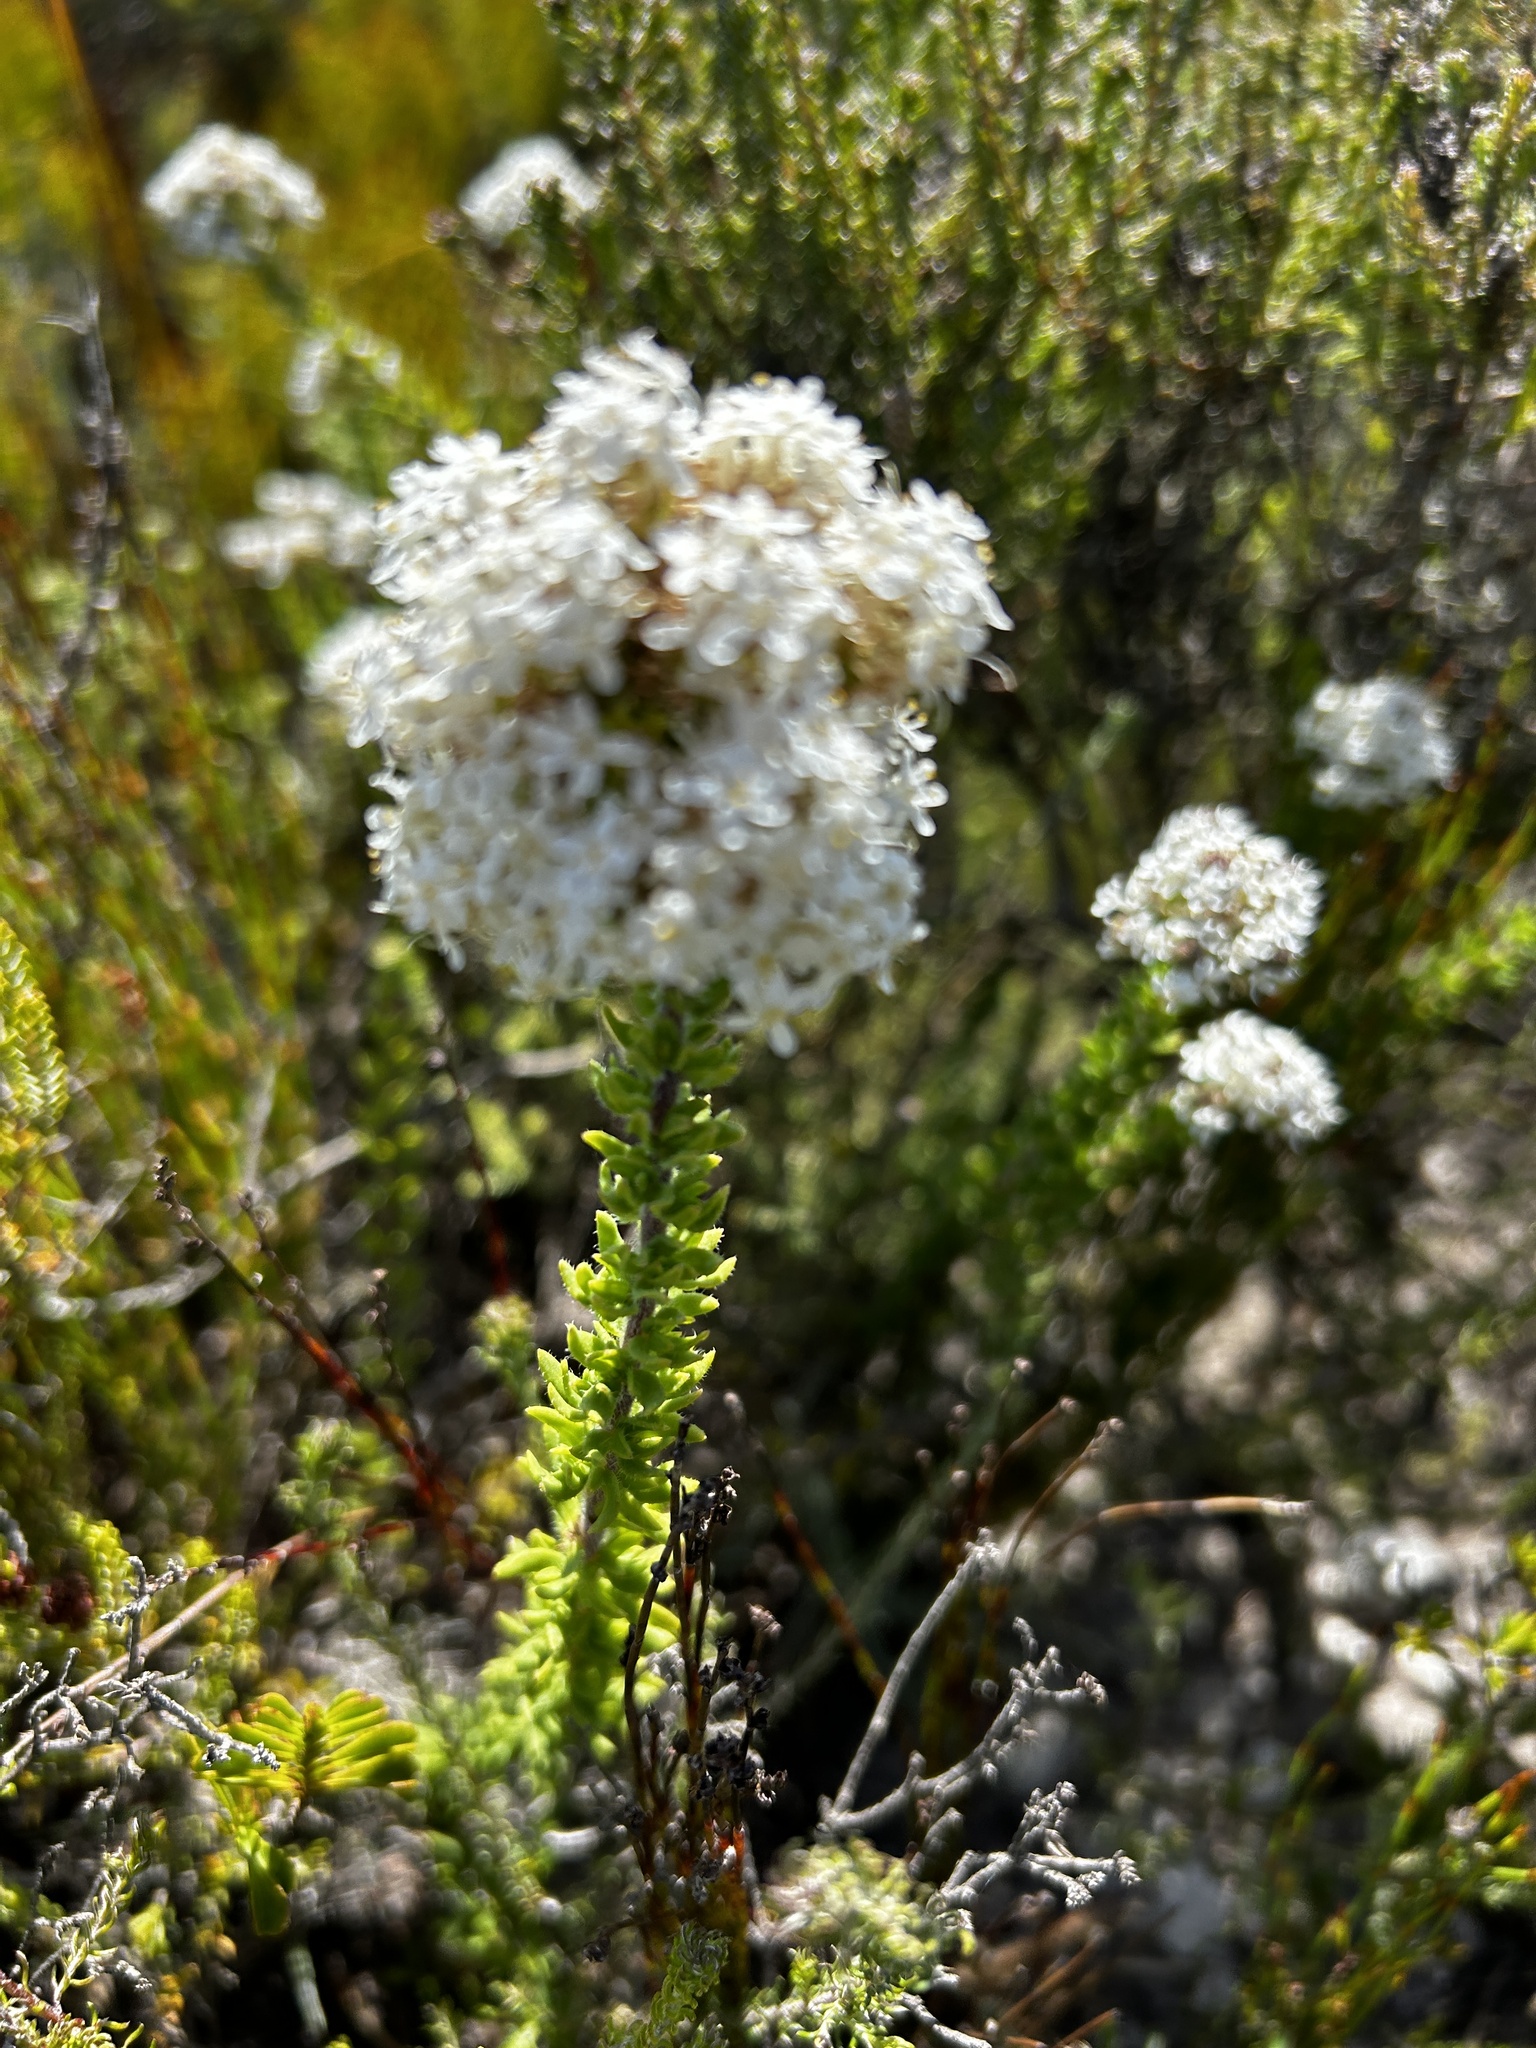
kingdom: Plantae
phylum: Tracheophyta
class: Magnoliopsida
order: Lamiales
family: Scrophulariaceae
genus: Selago
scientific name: Selago setulosa
